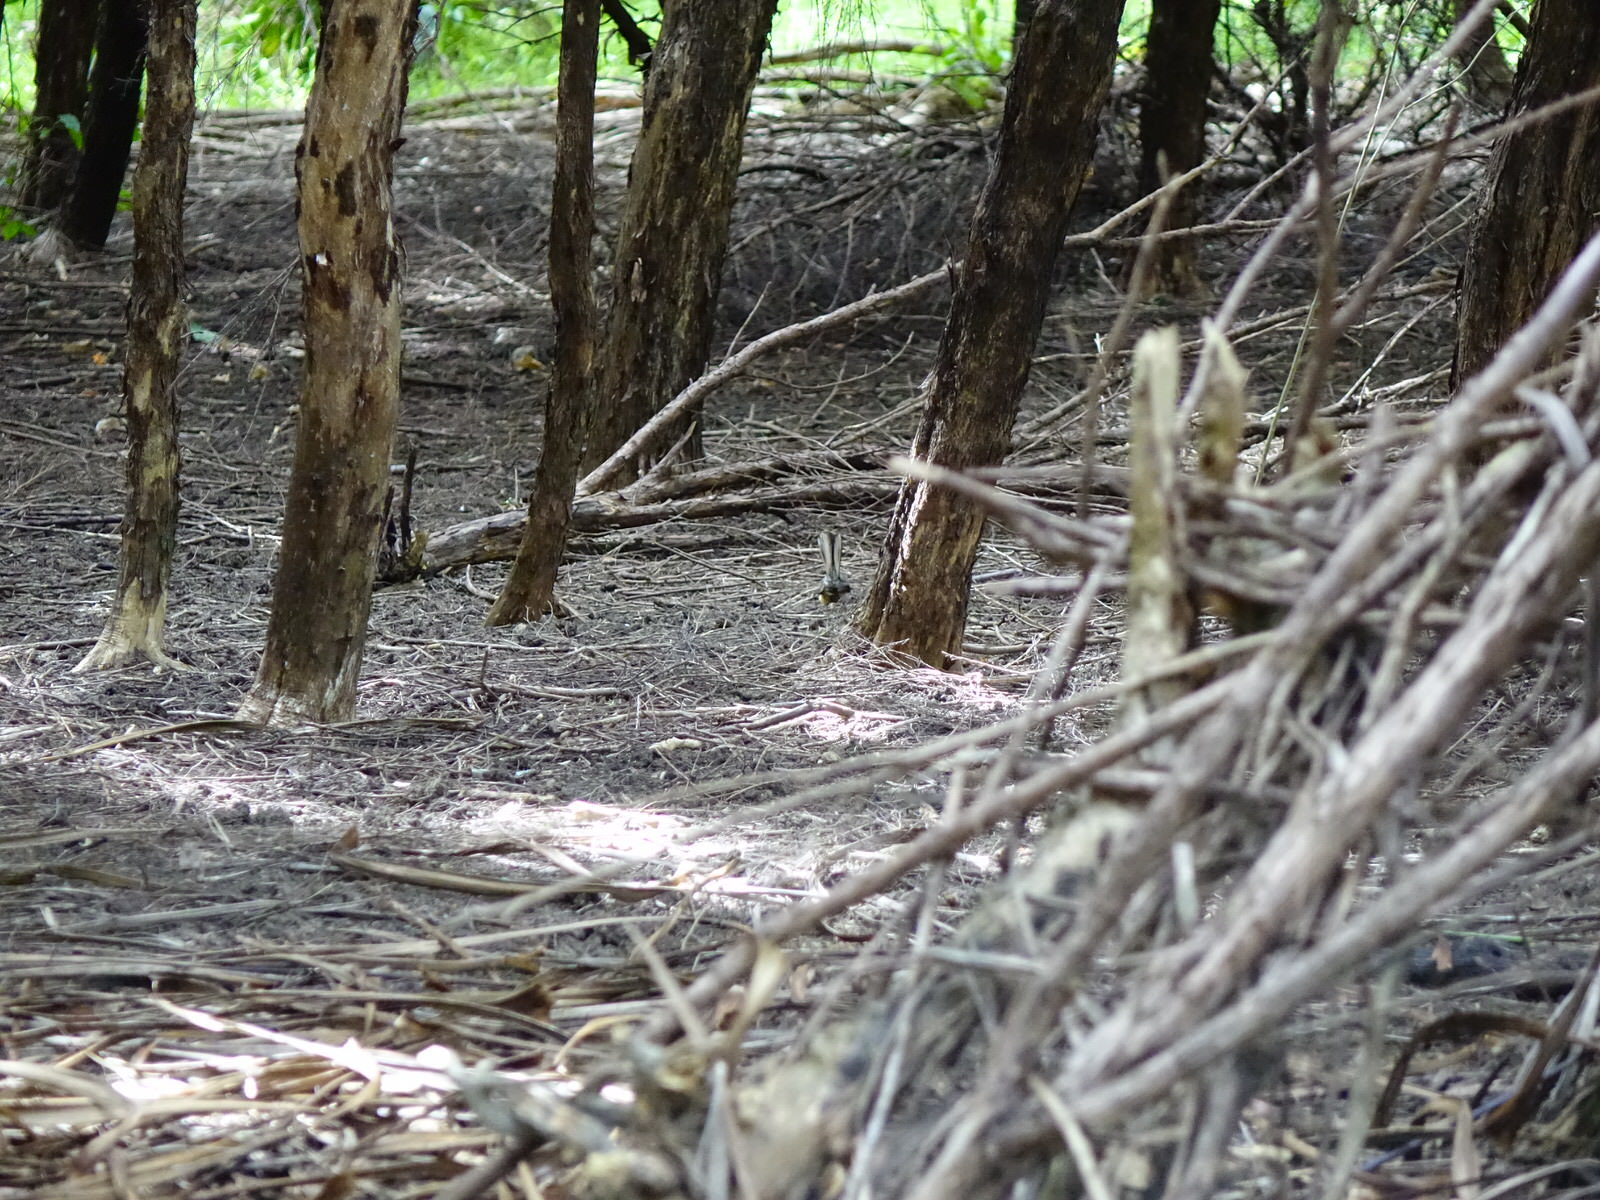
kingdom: Animalia
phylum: Chordata
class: Aves
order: Passeriformes
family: Rhipiduridae
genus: Rhipidura
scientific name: Rhipidura fuliginosa
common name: New zealand fantail
